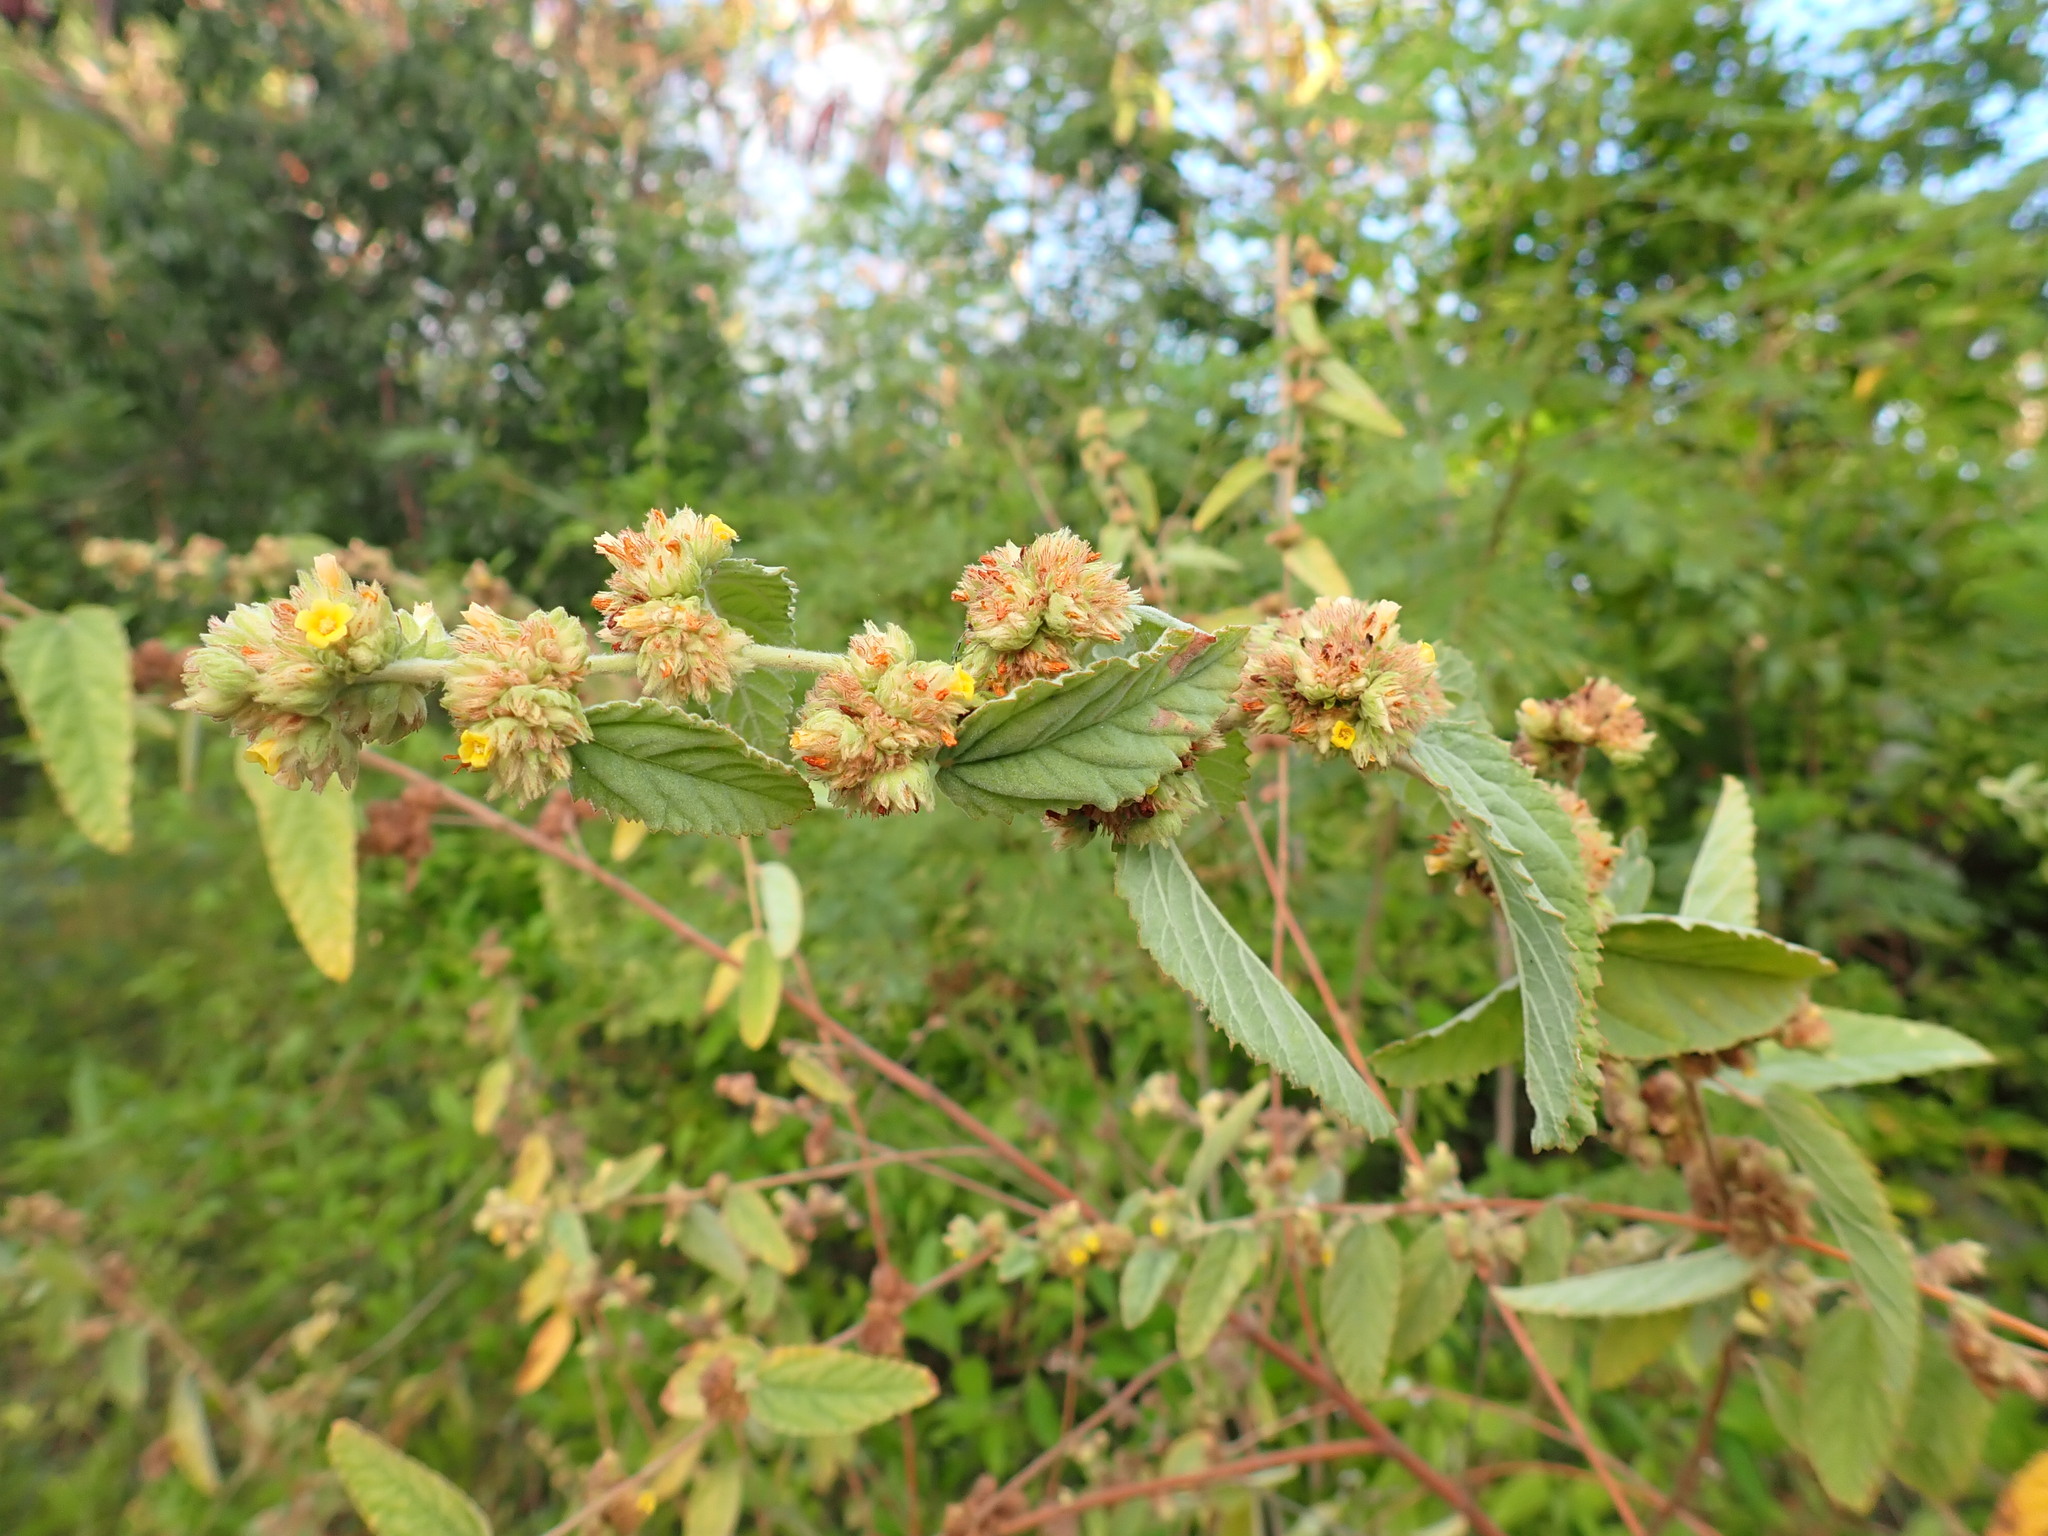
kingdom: Plantae
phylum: Tracheophyta
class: Magnoliopsida
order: Malvales
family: Malvaceae
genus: Waltheria
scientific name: Waltheria indica
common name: Leather-coat
